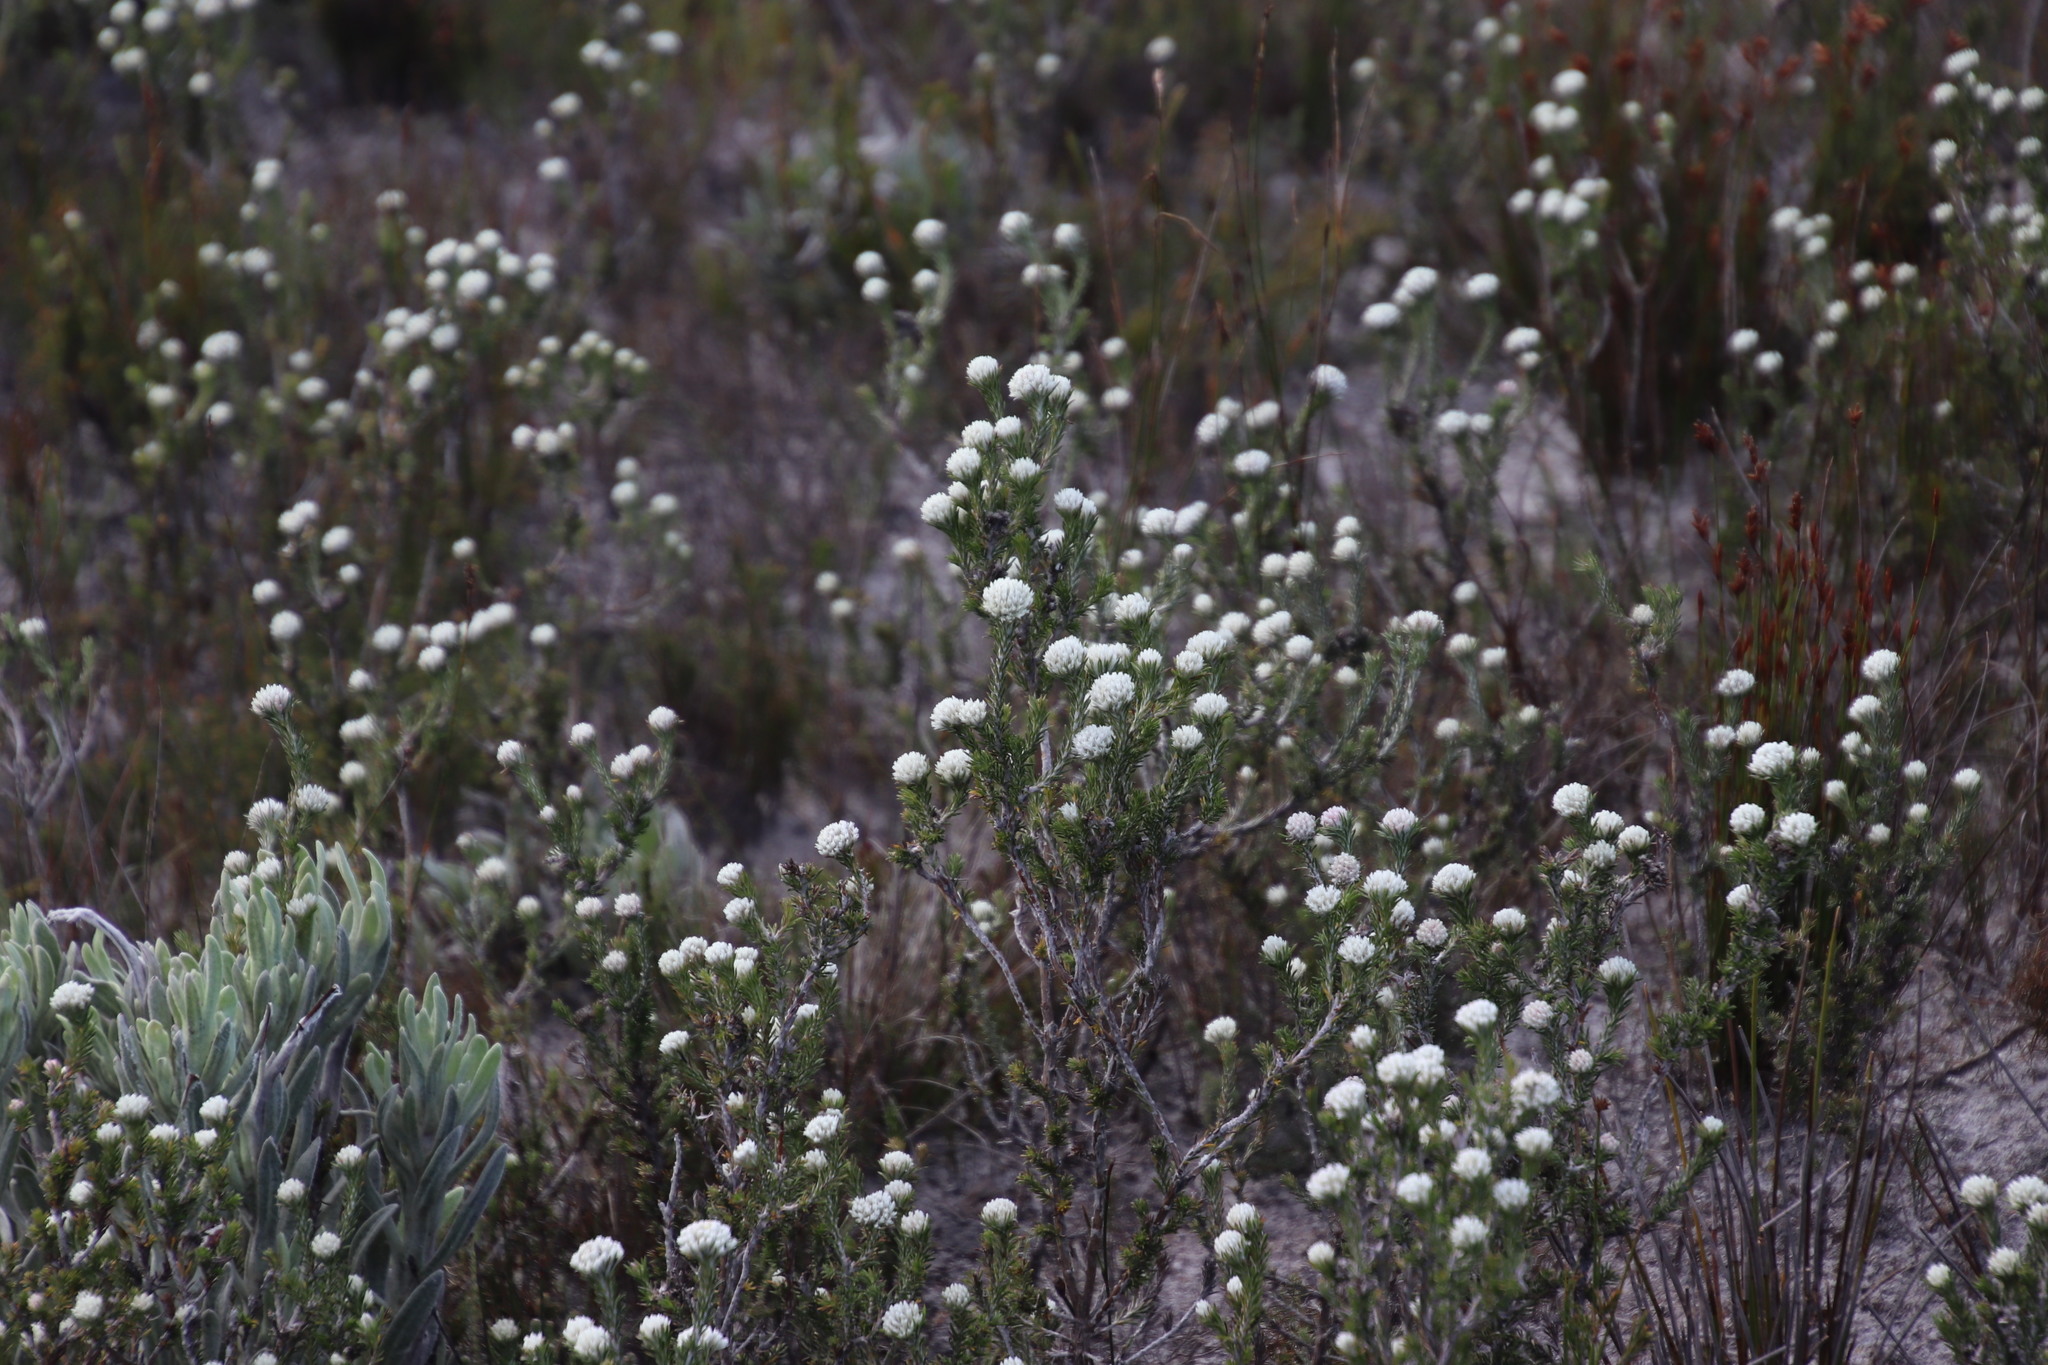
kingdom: Plantae
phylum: Tracheophyta
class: Magnoliopsida
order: Asterales
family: Asteraceae
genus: Metalasia
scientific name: Metalasia densa
